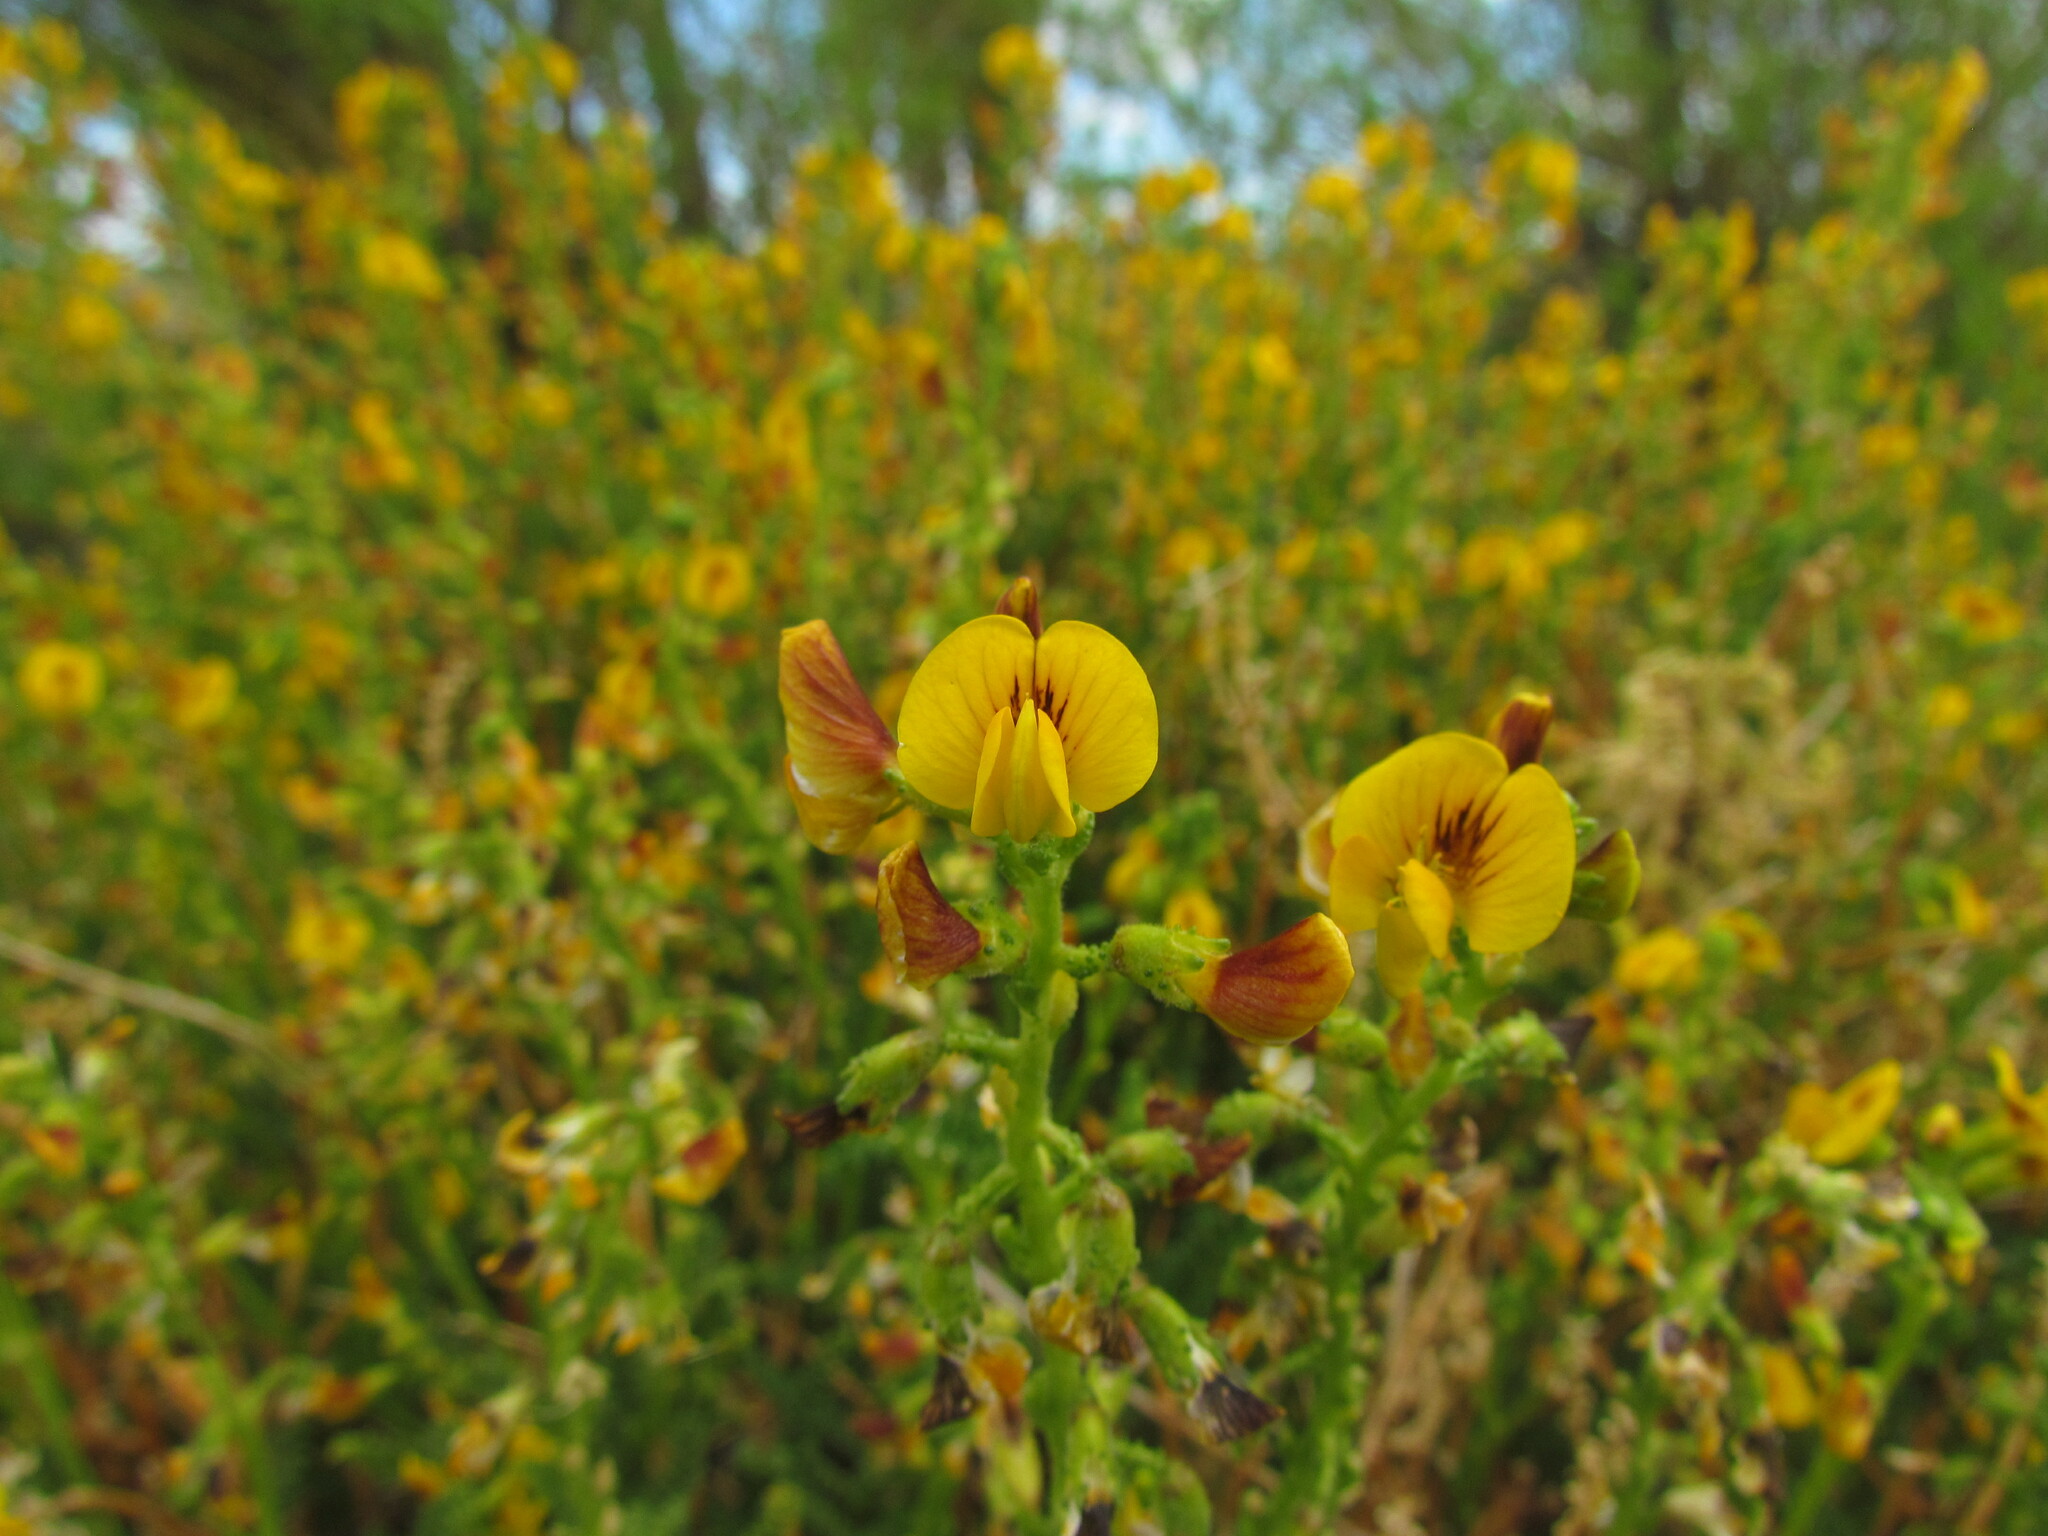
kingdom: Plantae
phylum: Tracheophyta
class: Magnoliopsida
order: Fabales
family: Fabaceae
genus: Adesmia
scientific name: Adesmia boronioides
